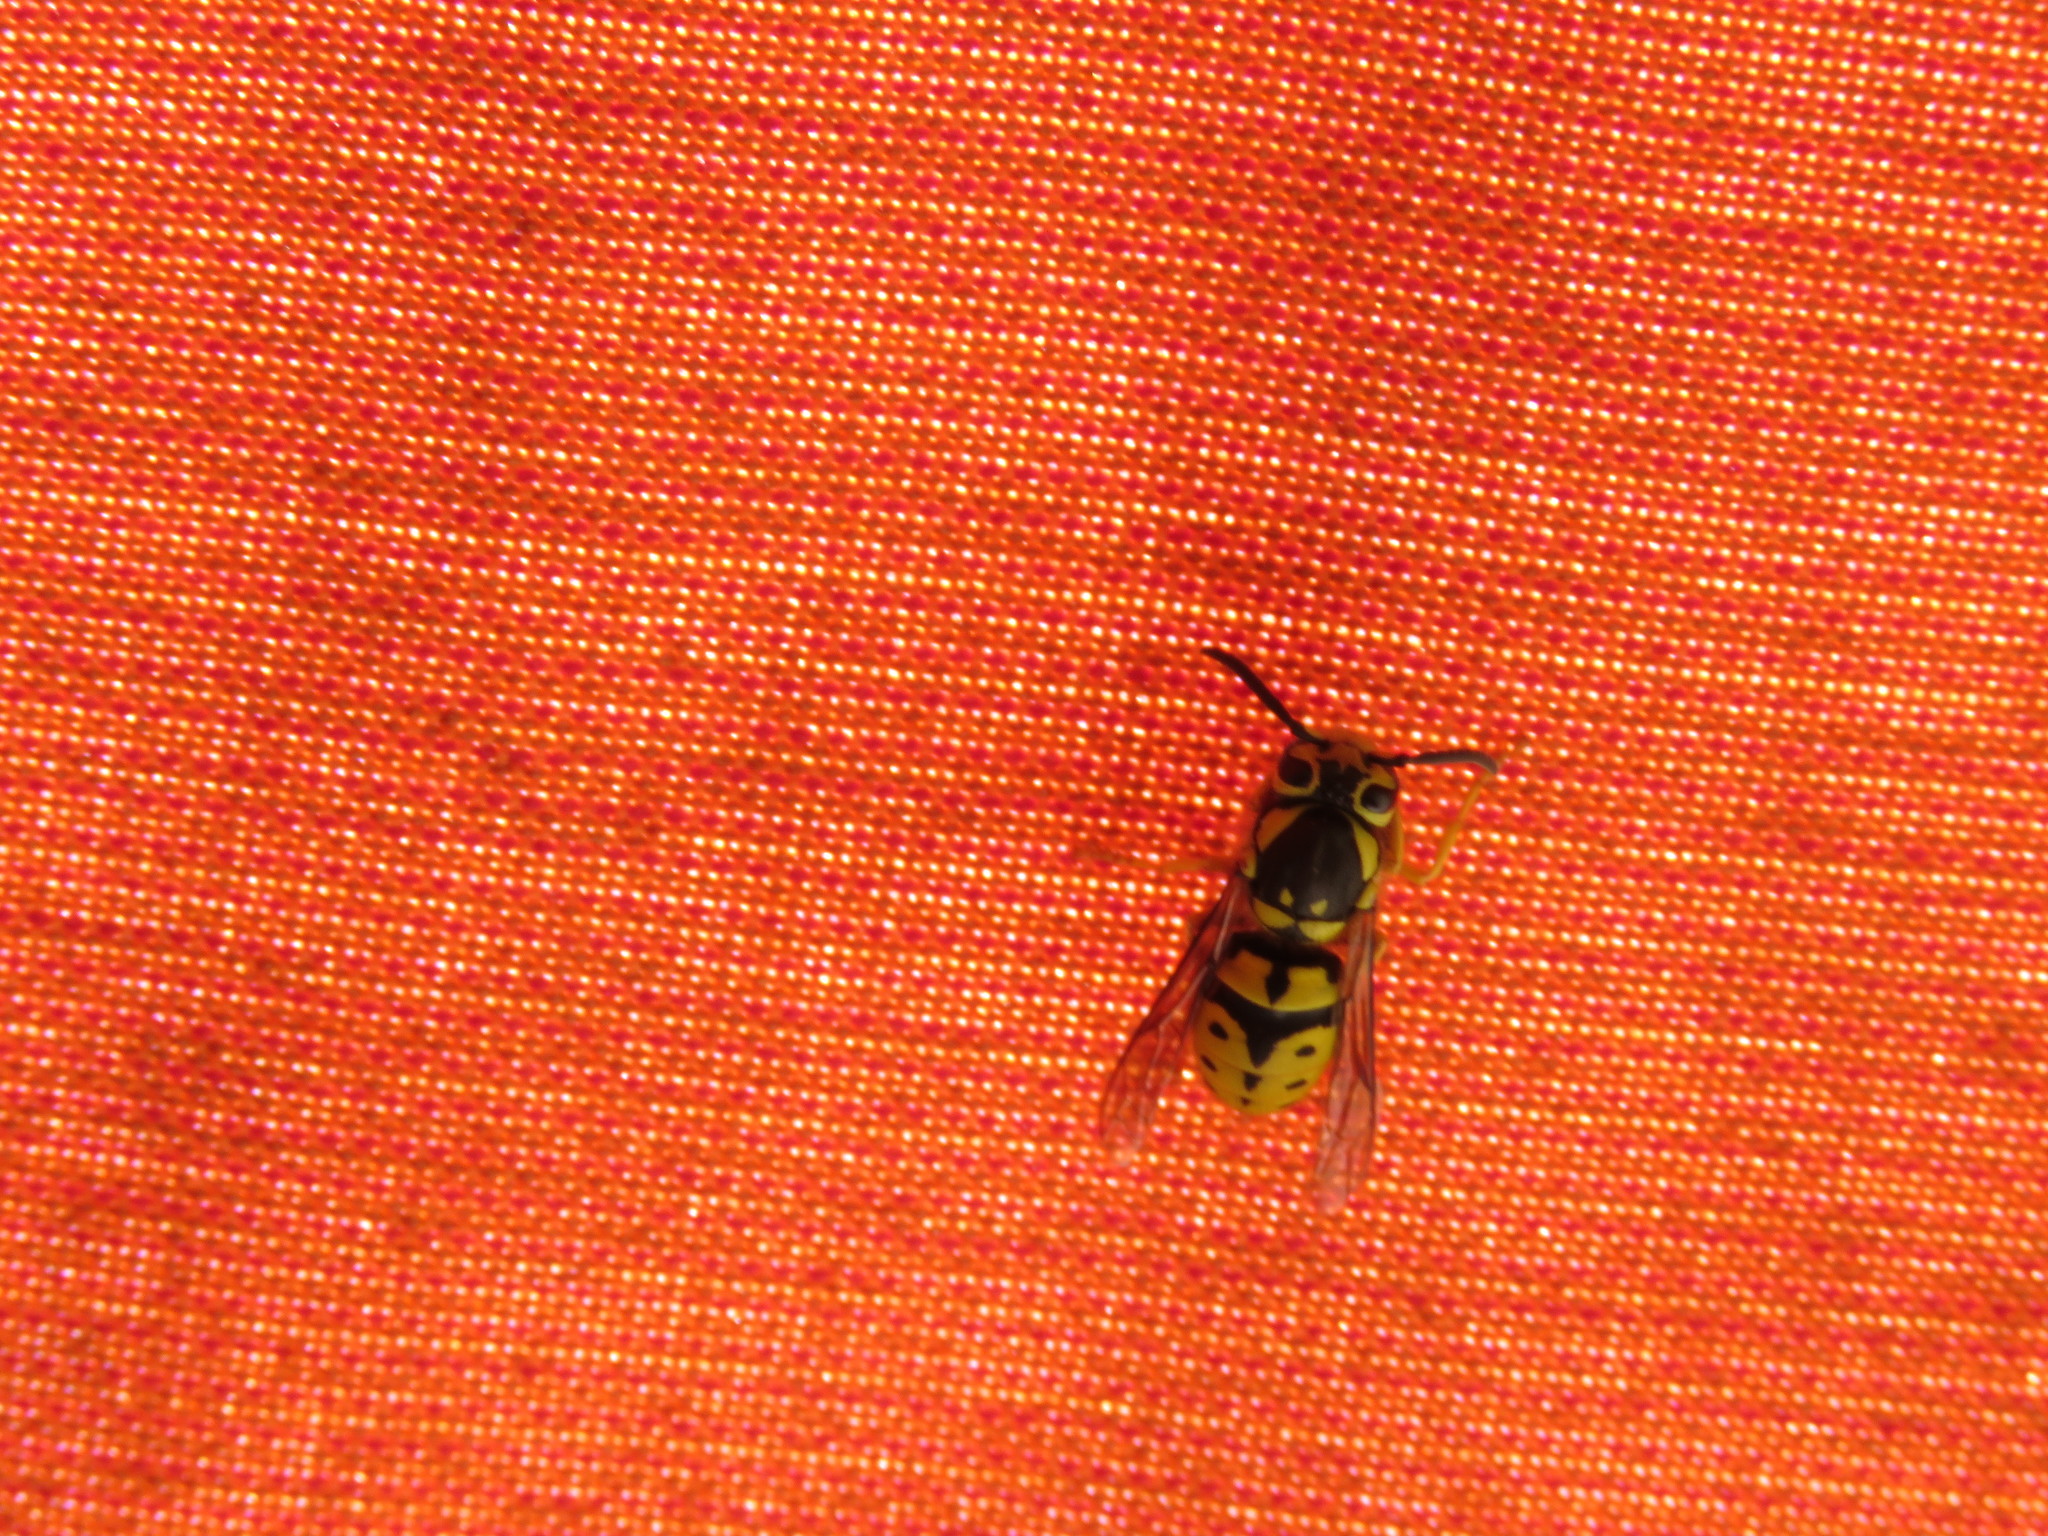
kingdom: Animalia
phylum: Arthropoda
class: Insecta
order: Hymenoptera
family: Vespidae
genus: Vespula
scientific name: Vespula pensylvanica
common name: Western yellowjacket
